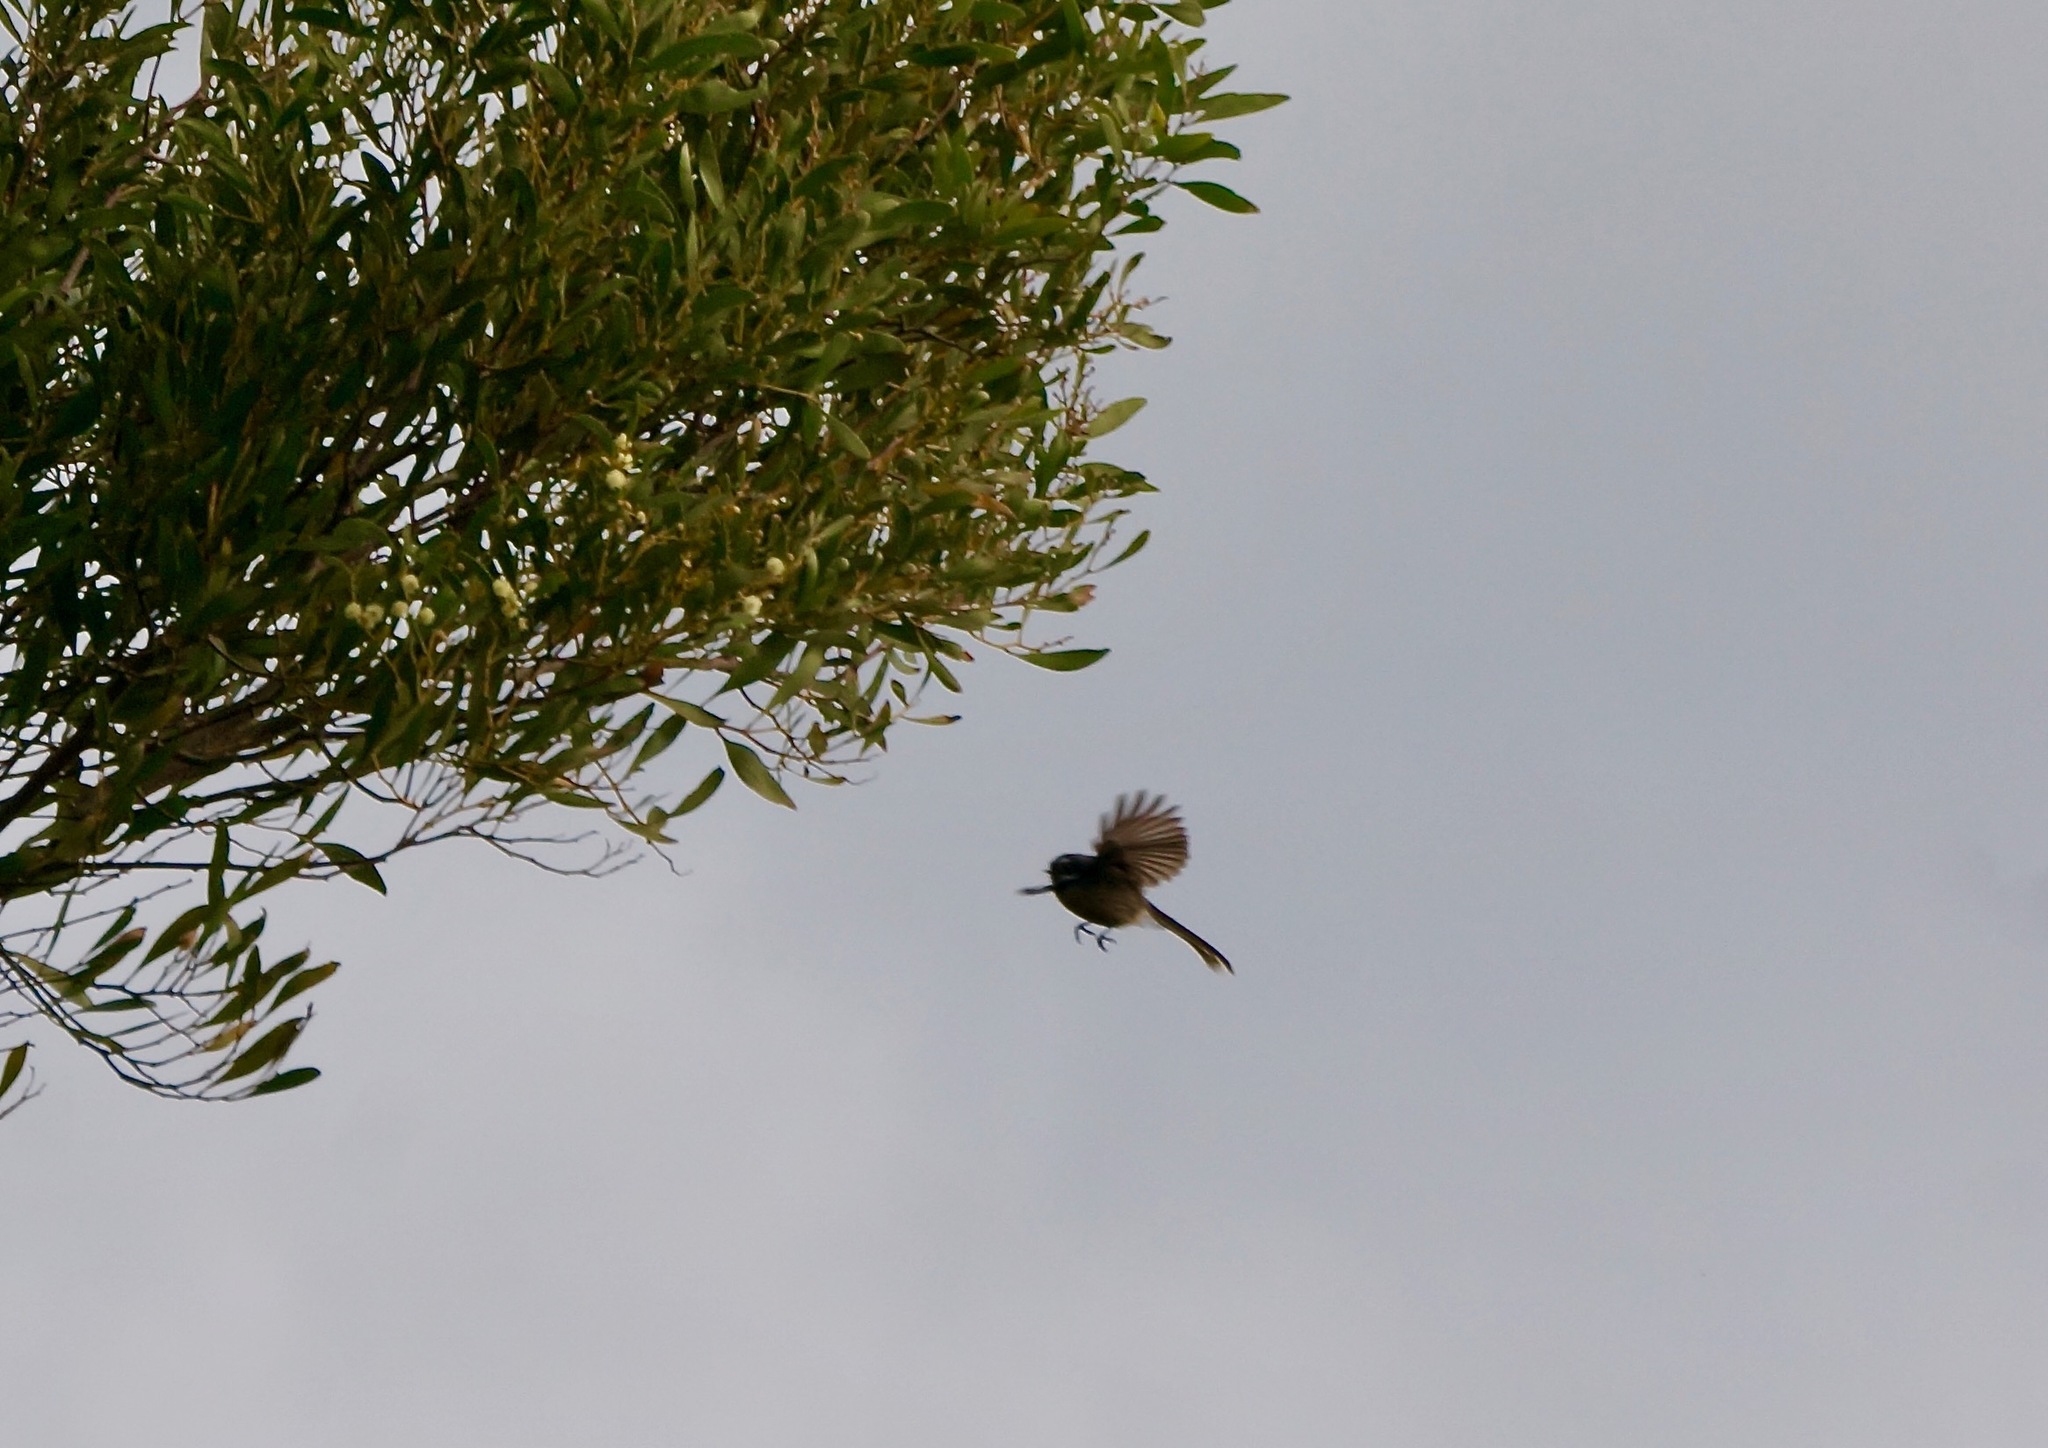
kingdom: Animalia
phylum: Chordata
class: Aves
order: Passeriformes
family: Rhipiduridae
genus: Rhipidura
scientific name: Rhipidura fuliginosa
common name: New zealand fantail
